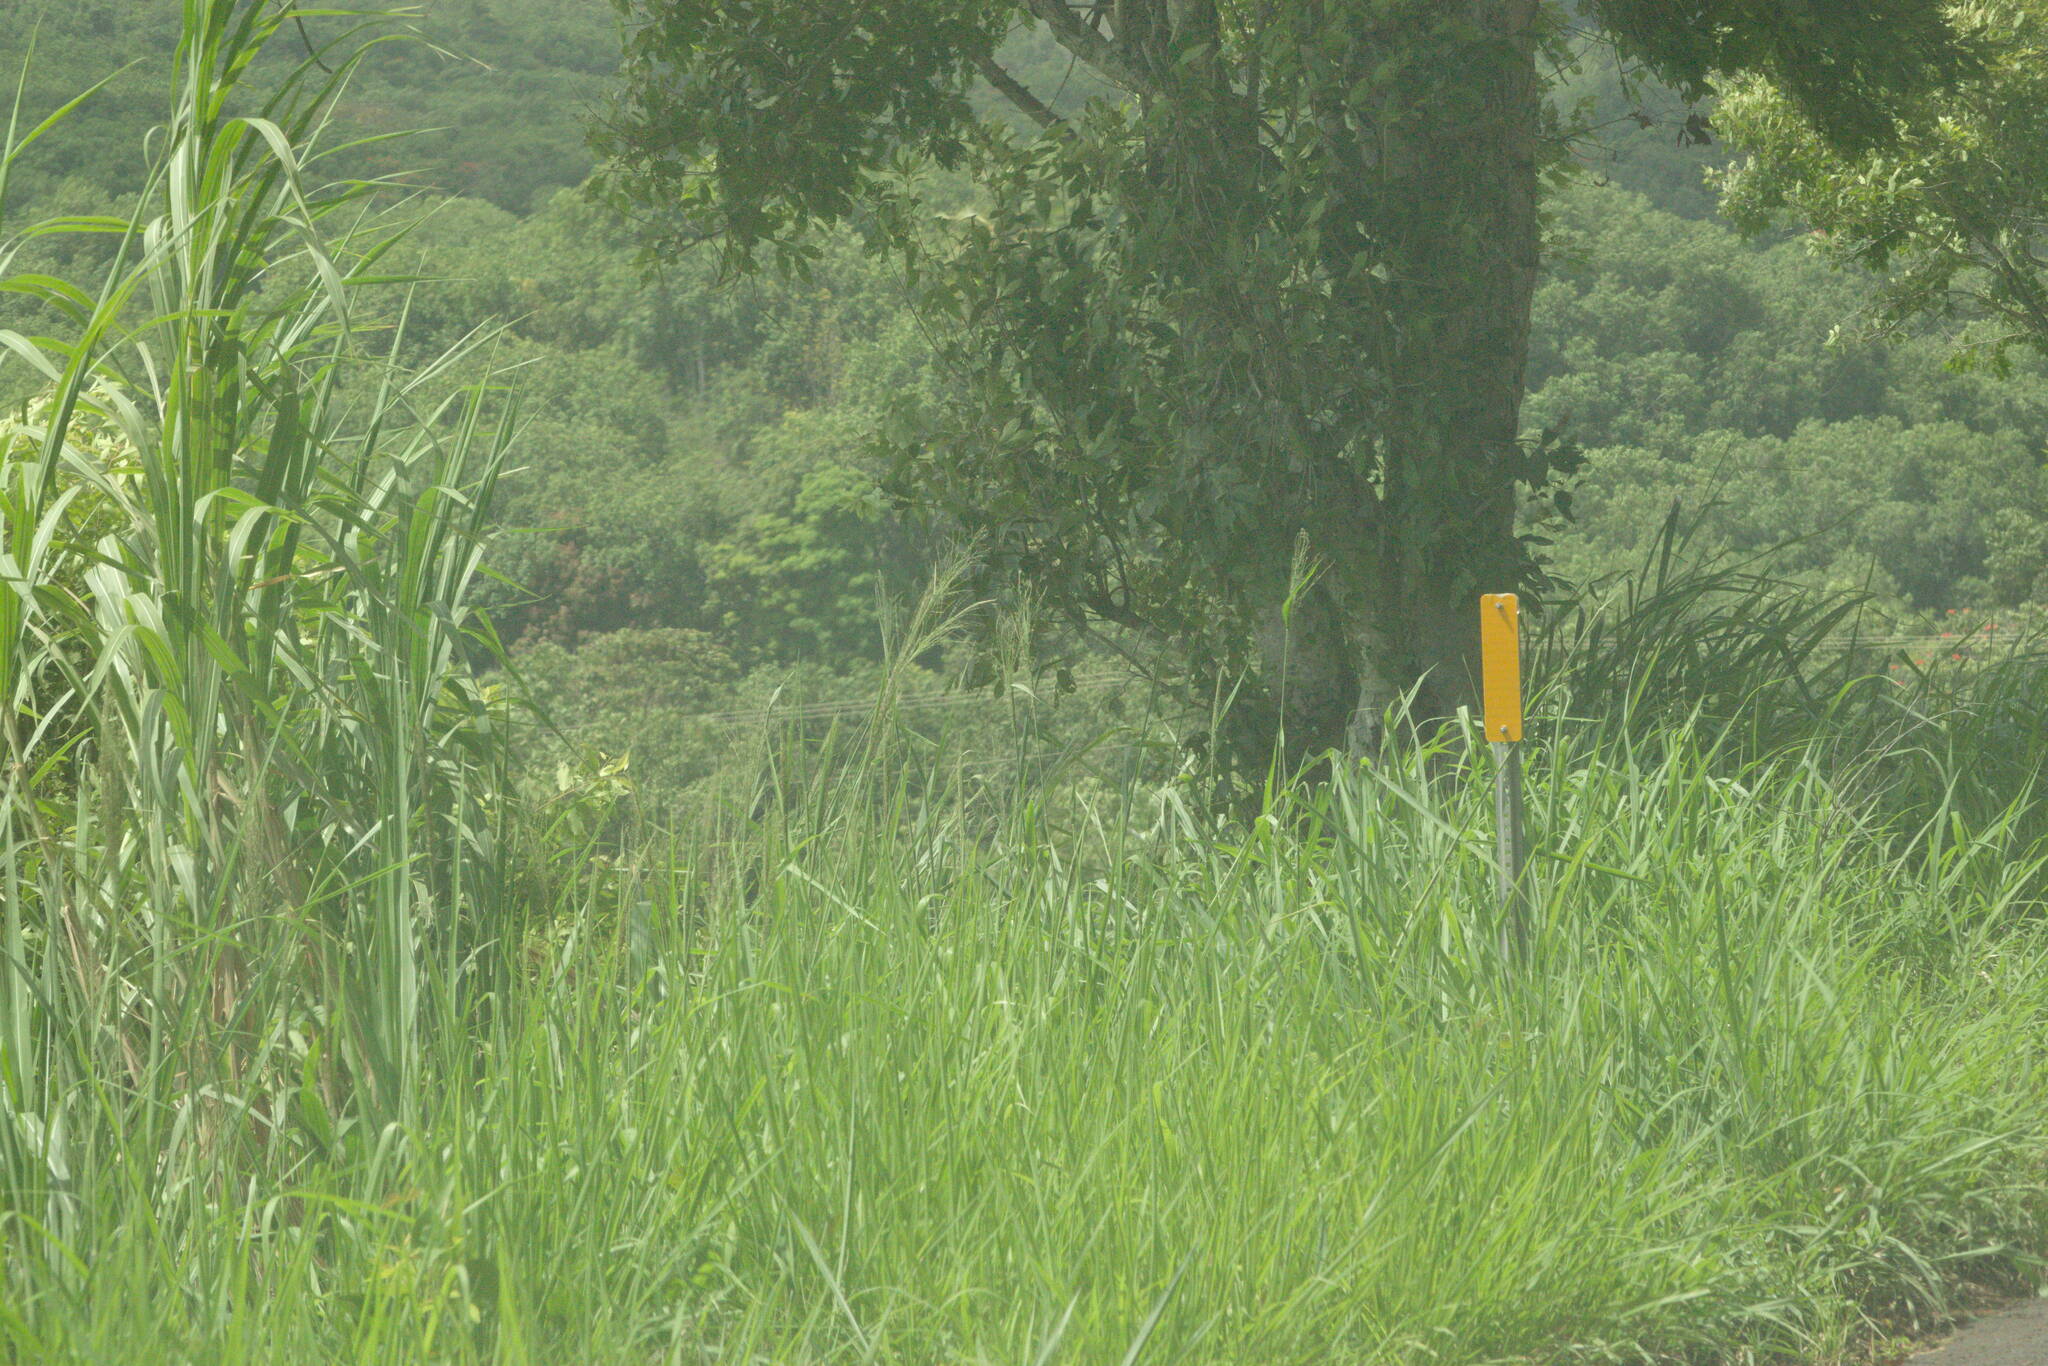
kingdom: Plantae
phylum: Tracheophyta
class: Liliopsida
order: Poales
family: Poaceae
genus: Megathyrsus
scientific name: Megathyrsus maximus
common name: Guineagrass
